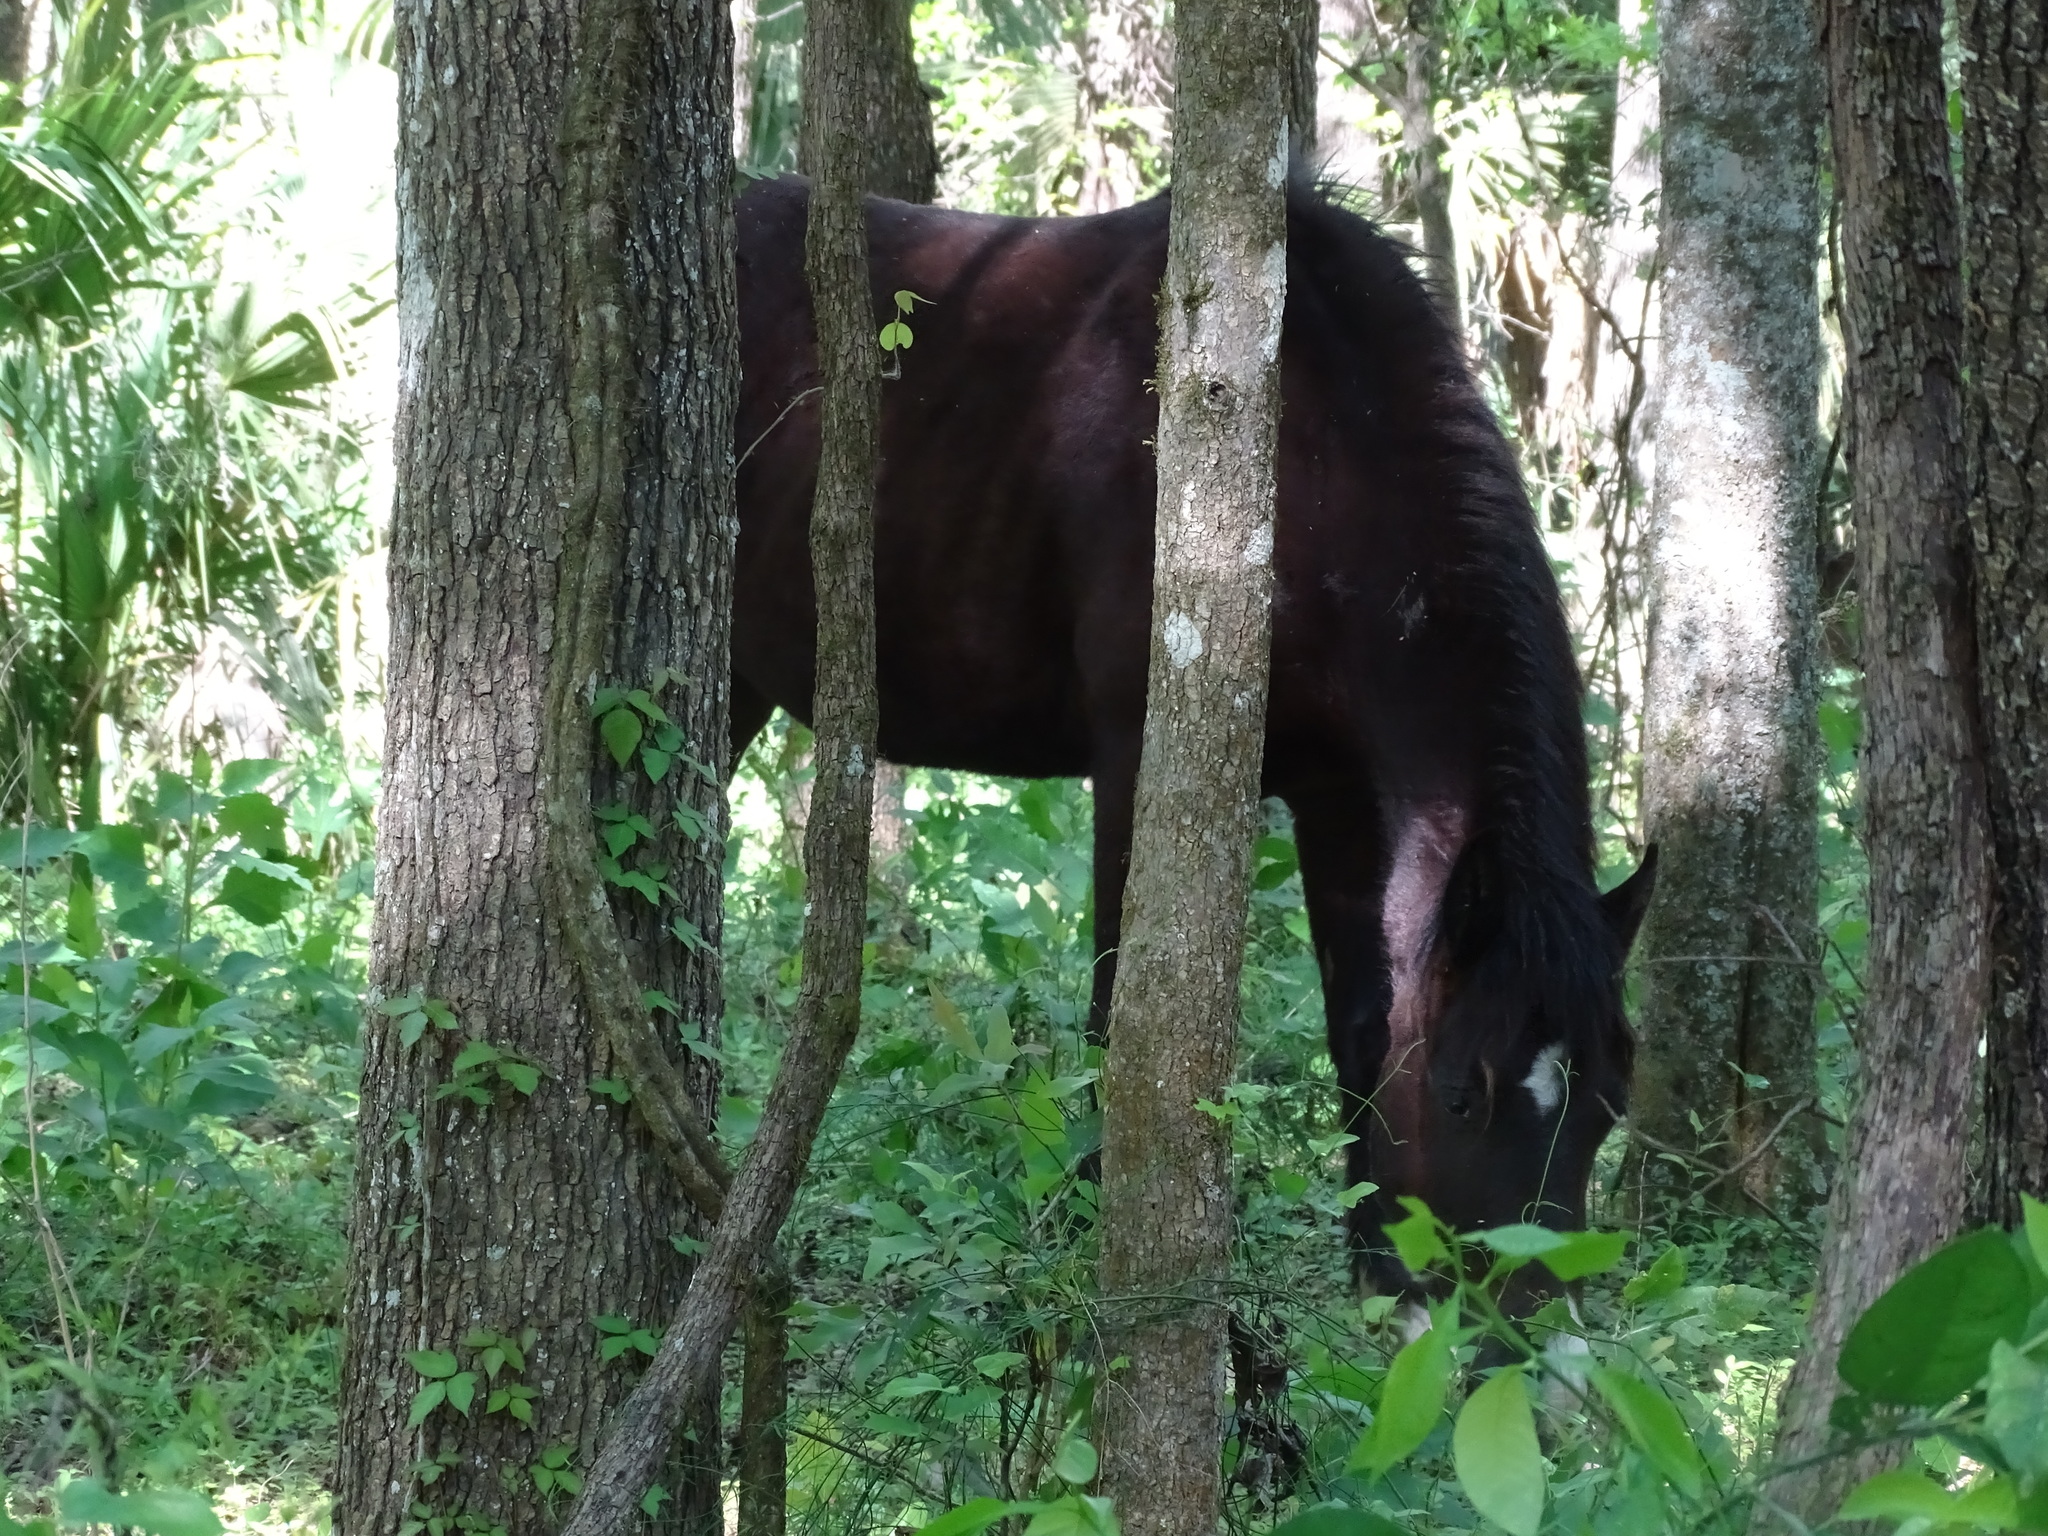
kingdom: Animalia
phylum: Chordata
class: Mammalia
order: Perissodactyla
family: Equidae
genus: Equus
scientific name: Equus caballus
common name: Horse
